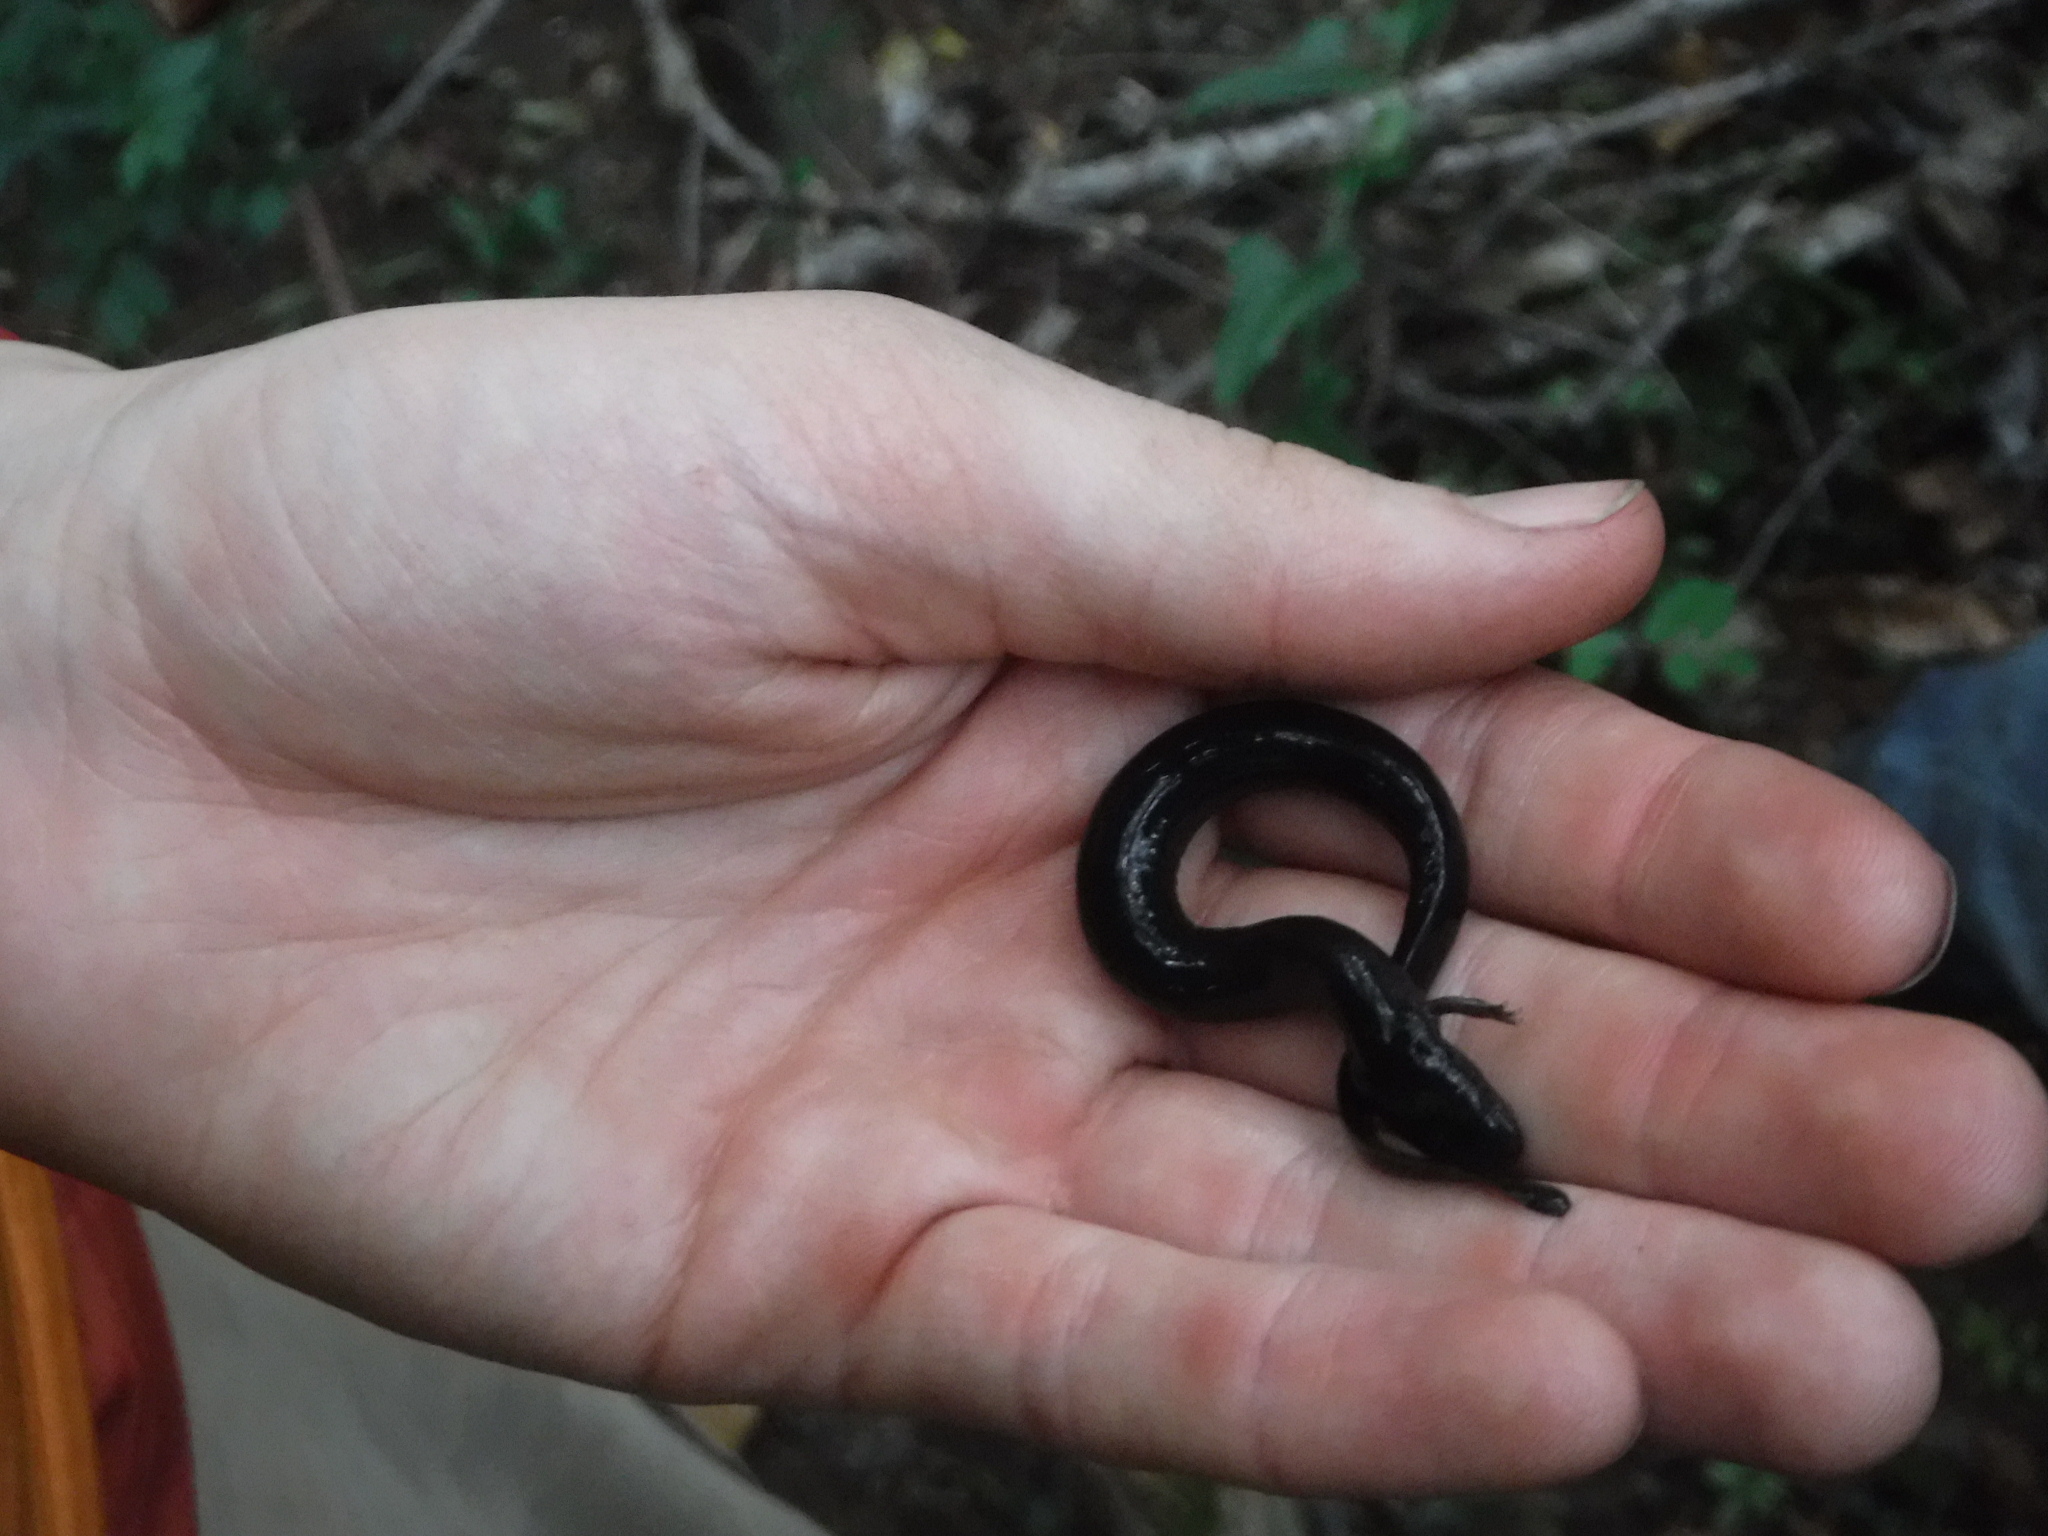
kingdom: Animalia
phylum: Chordata
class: Amphibia
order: Caudata
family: Sirenidae
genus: Siren
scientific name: Siren intermedia
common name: Lesser siren
